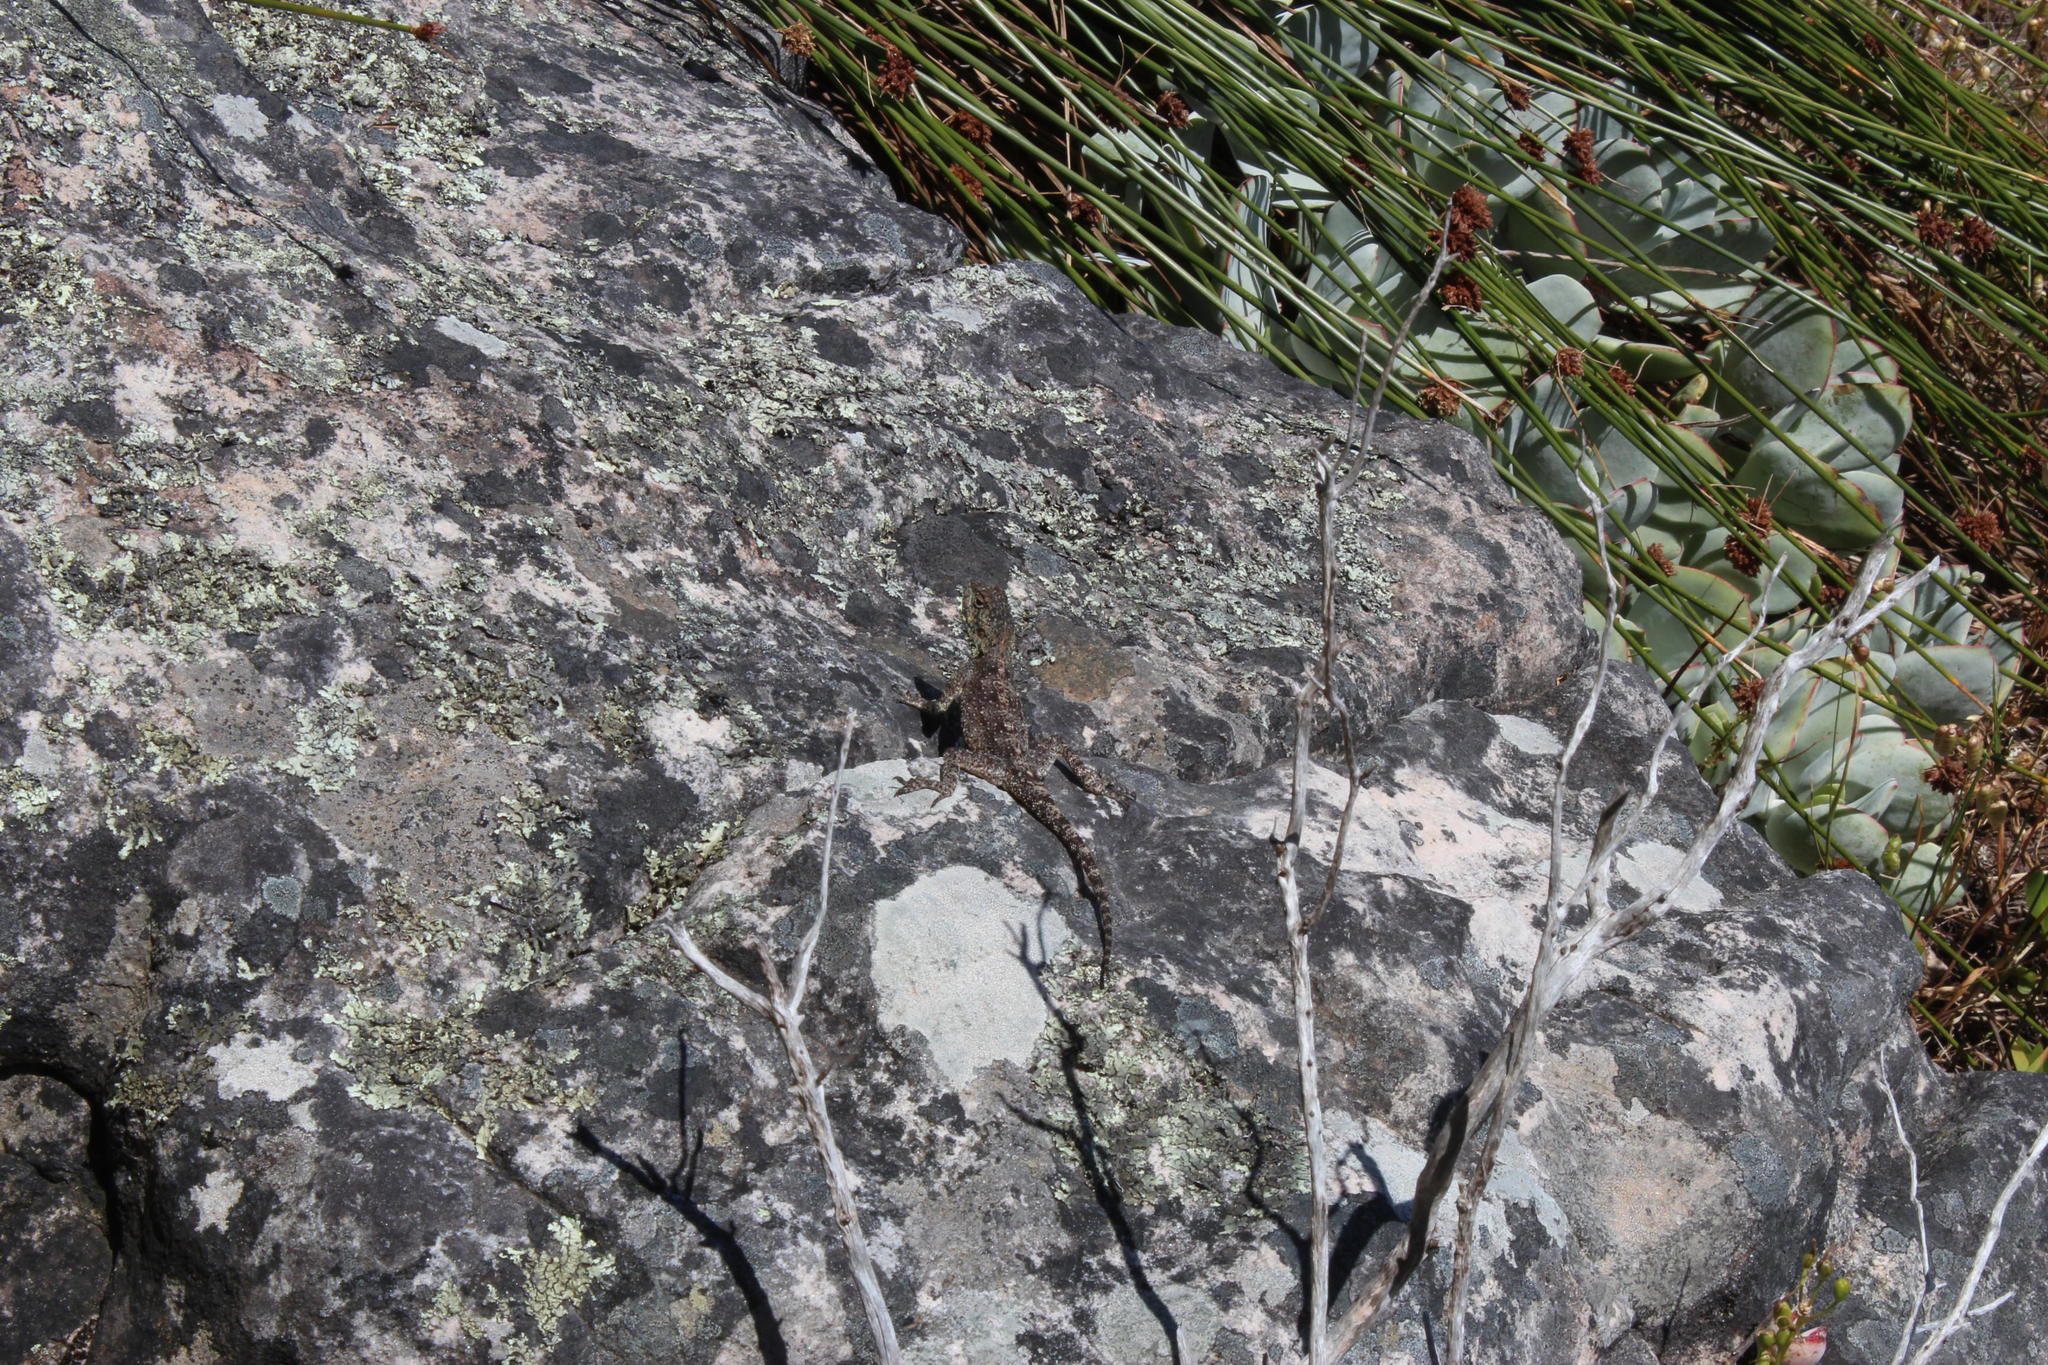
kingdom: Animalia
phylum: Chordata
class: Squamata
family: Agamidae
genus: Agama
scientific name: Agama atra
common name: Southern african rock agama
